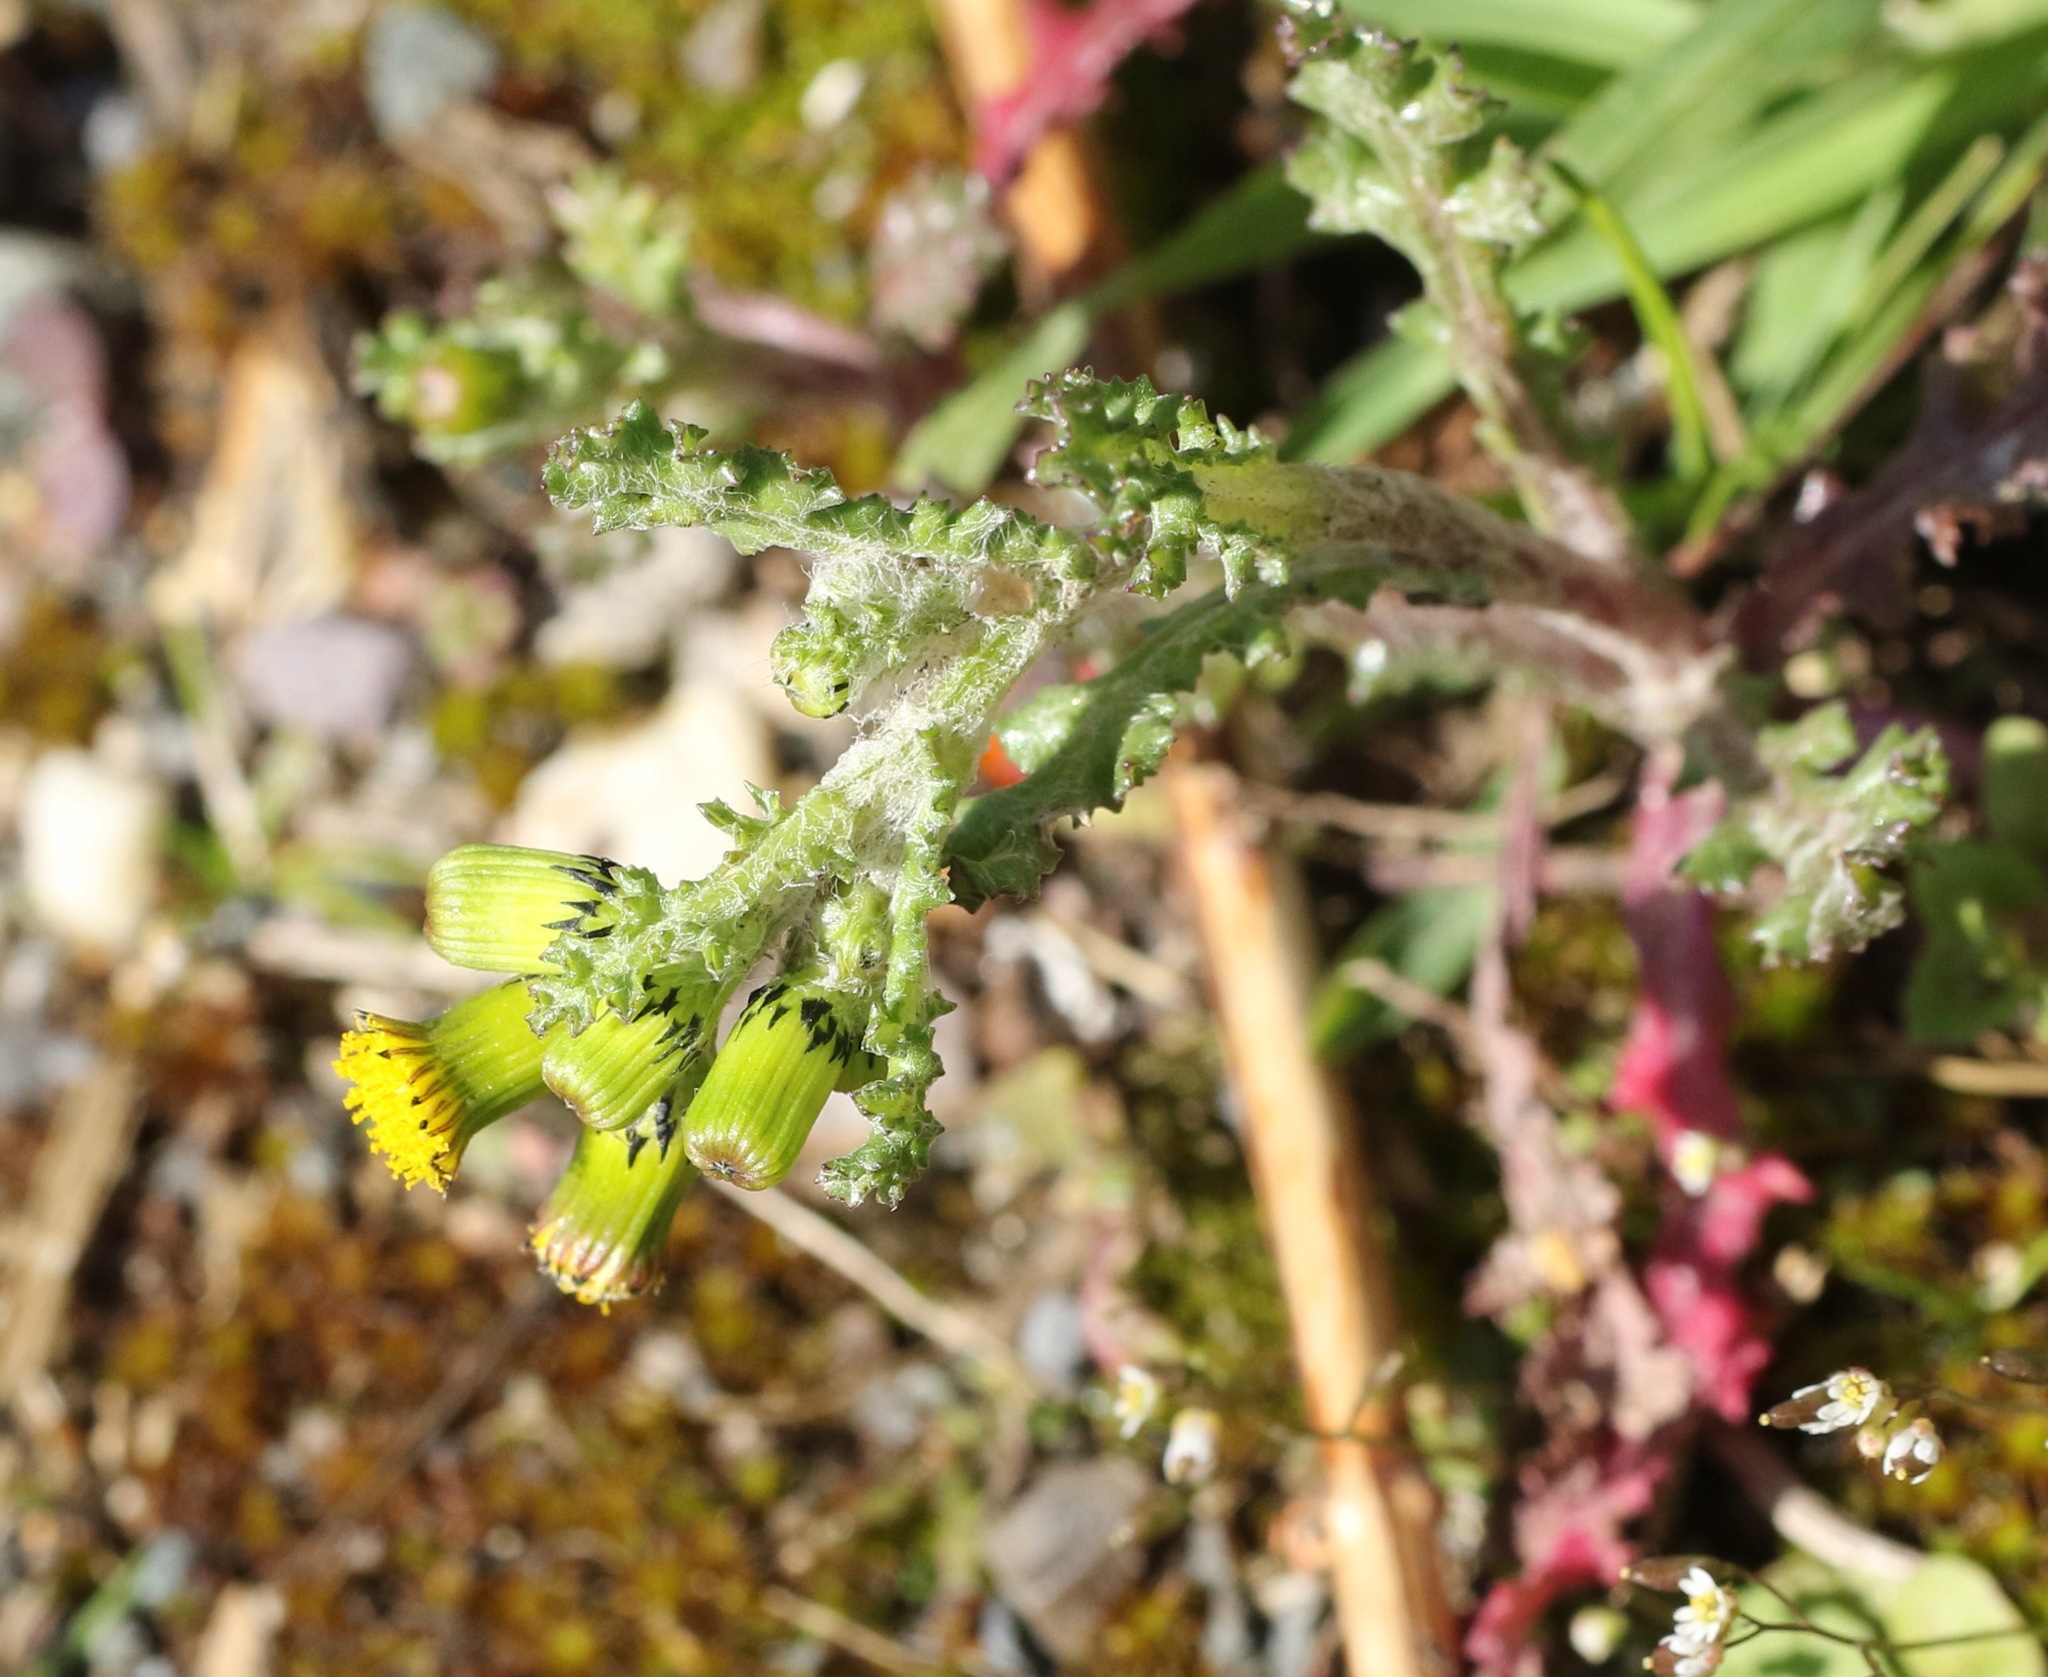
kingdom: Plantae
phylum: Tracheophyta
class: Magnoliopsida
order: Asterales
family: Asteraceae
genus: Senecio
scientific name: Senecio vulgaris
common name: Old-man-in-the-spring
